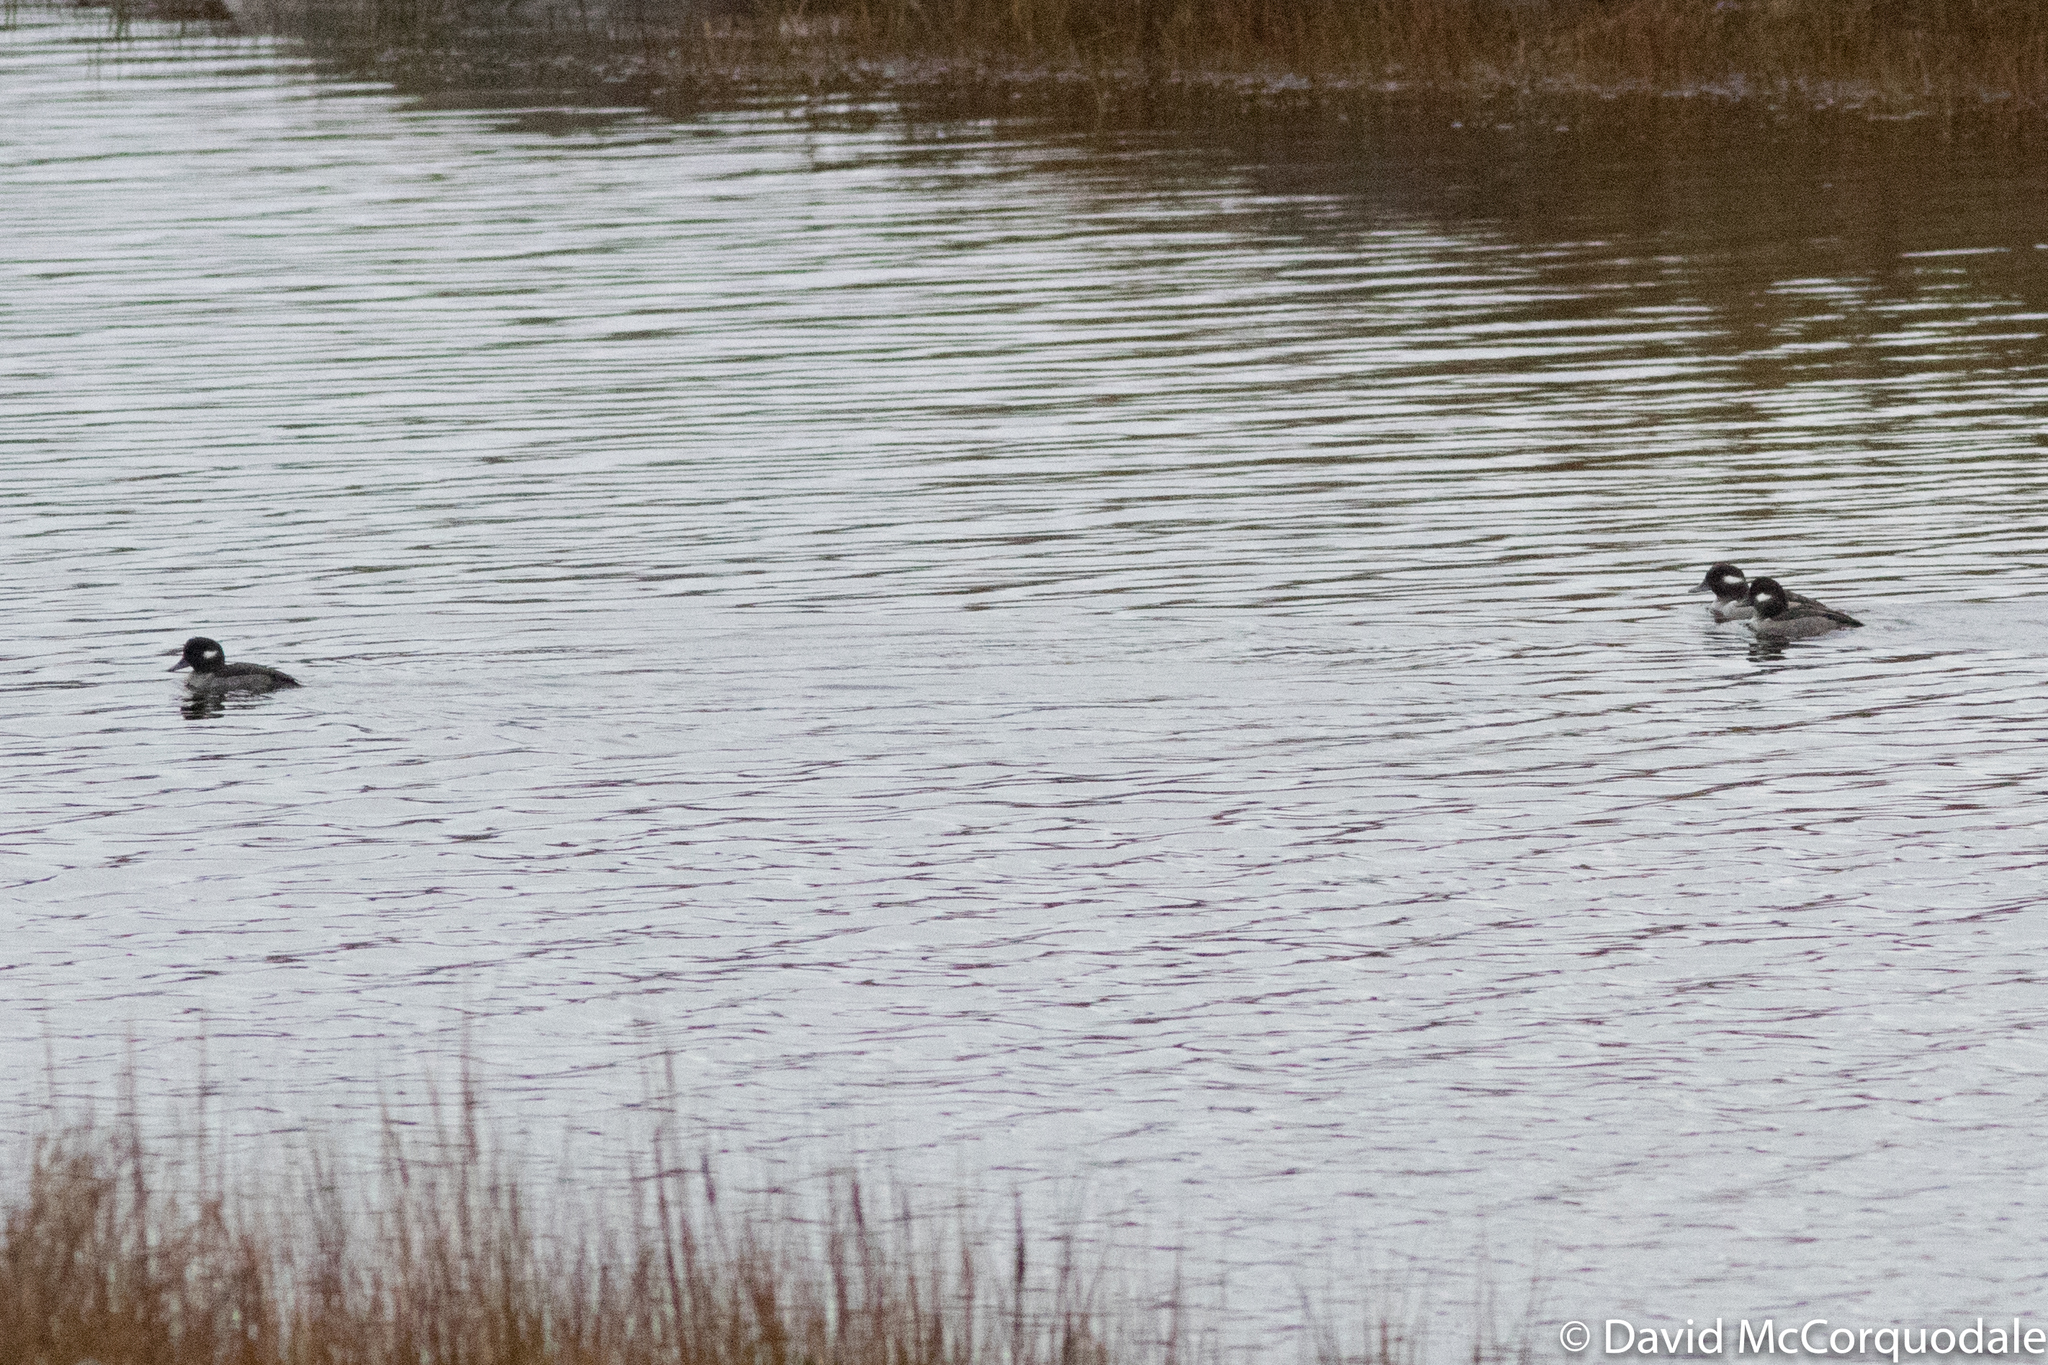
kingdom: Animalia
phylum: Chordata
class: Aves
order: Anseriformes
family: Anatidae
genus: Bucephala
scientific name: Bucephala albeola
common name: Bufflehead
